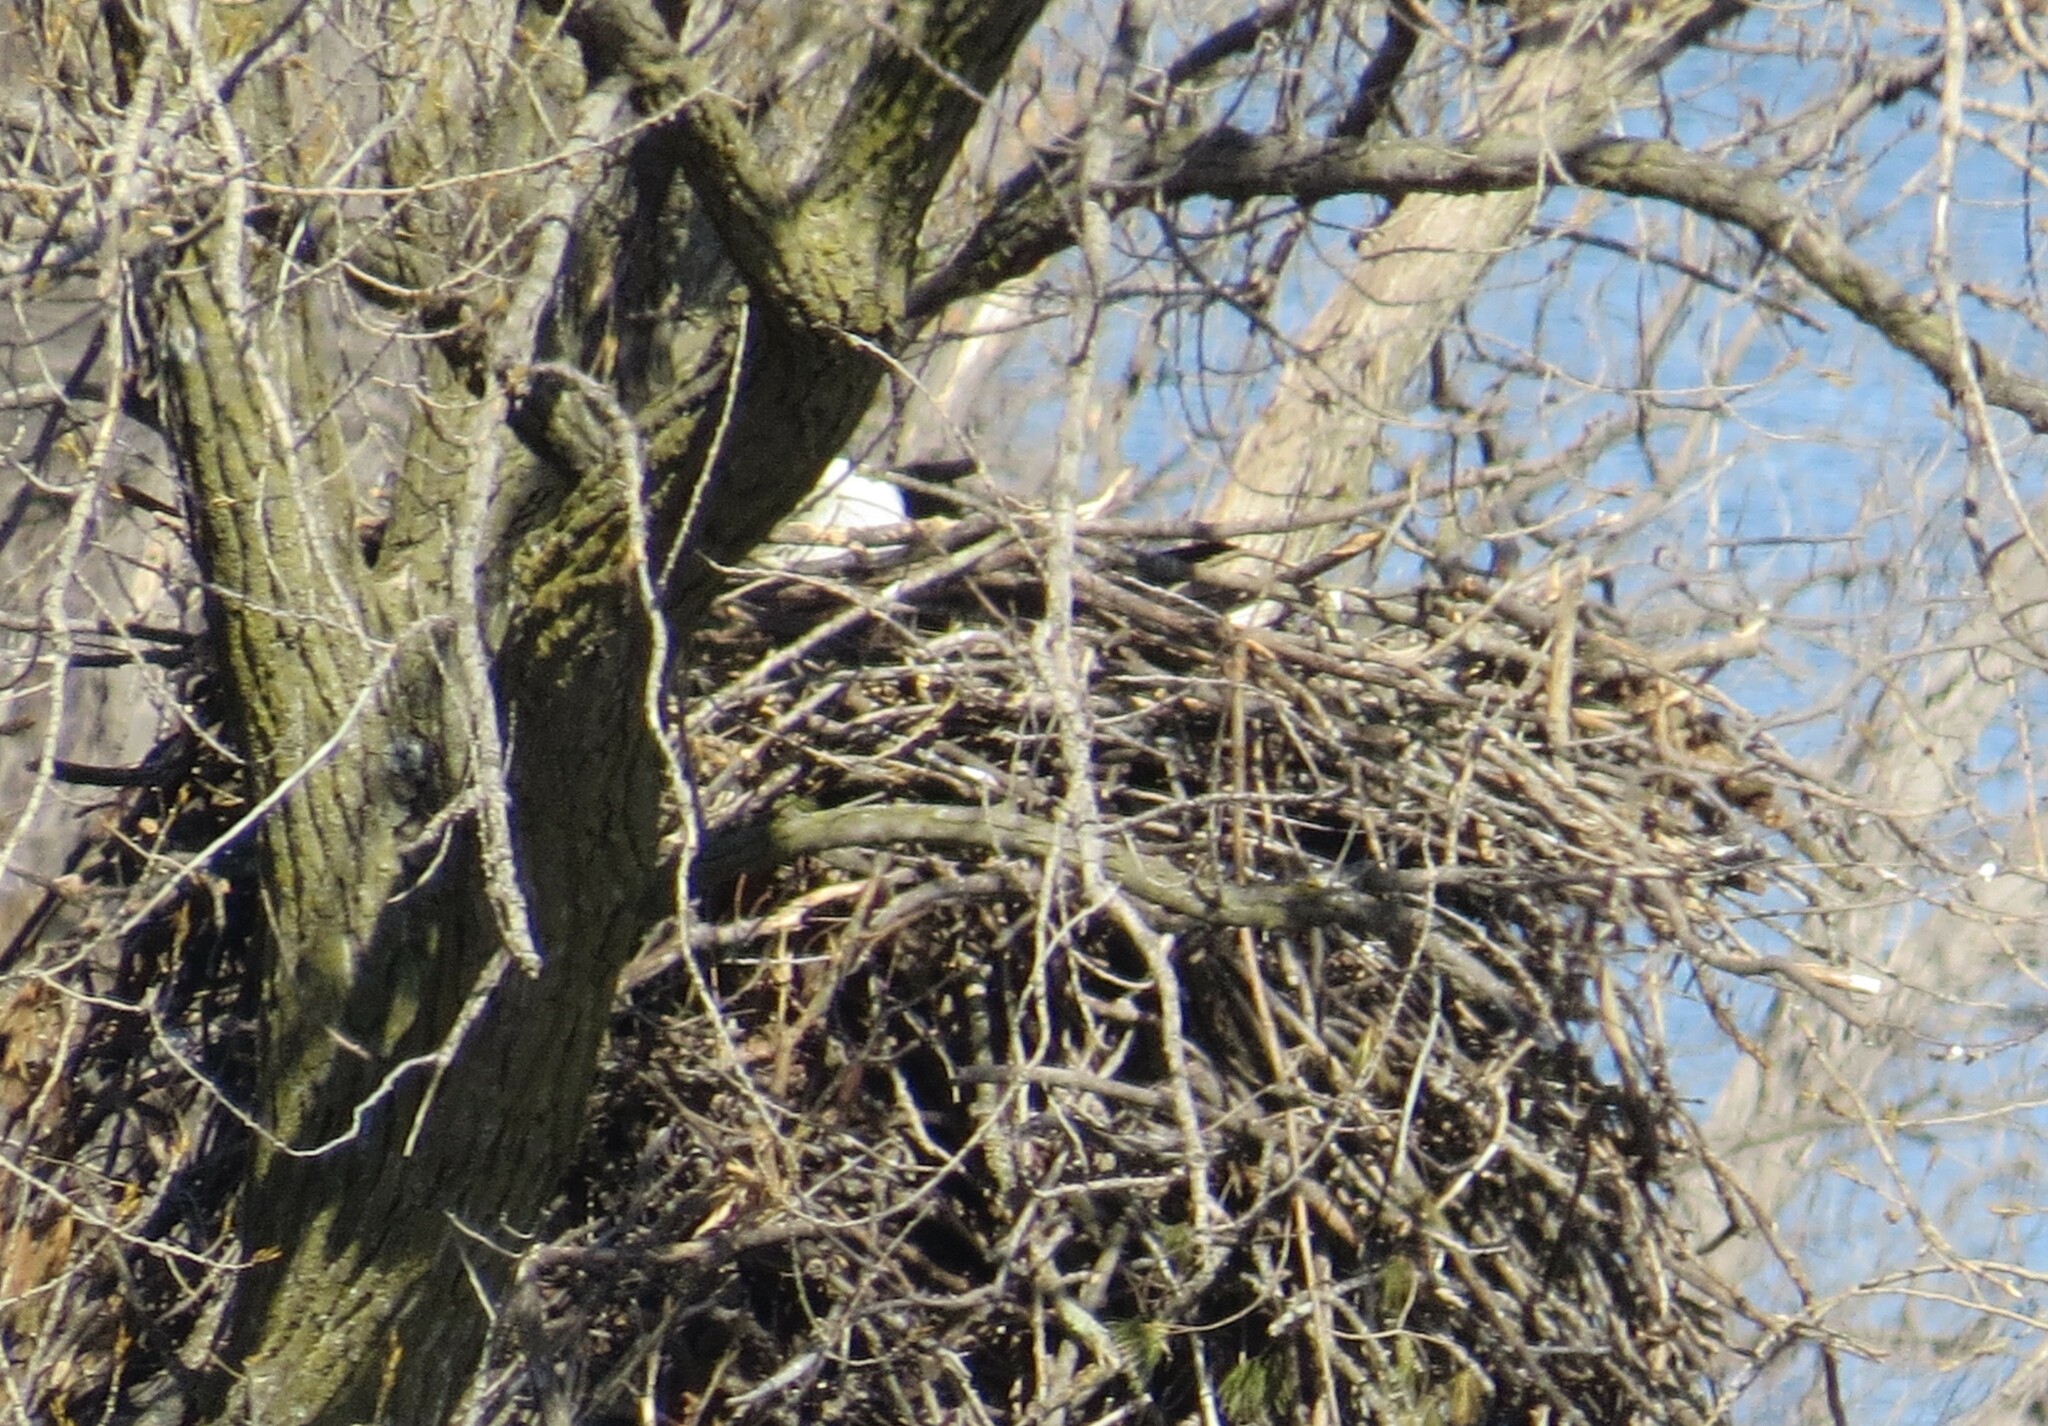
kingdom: Animalia
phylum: Chordata
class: Aves
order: Accipitriformes
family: Accipitridae
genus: Haliaeetus
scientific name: Haliaeetus leucocephalus
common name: Bald eagle
